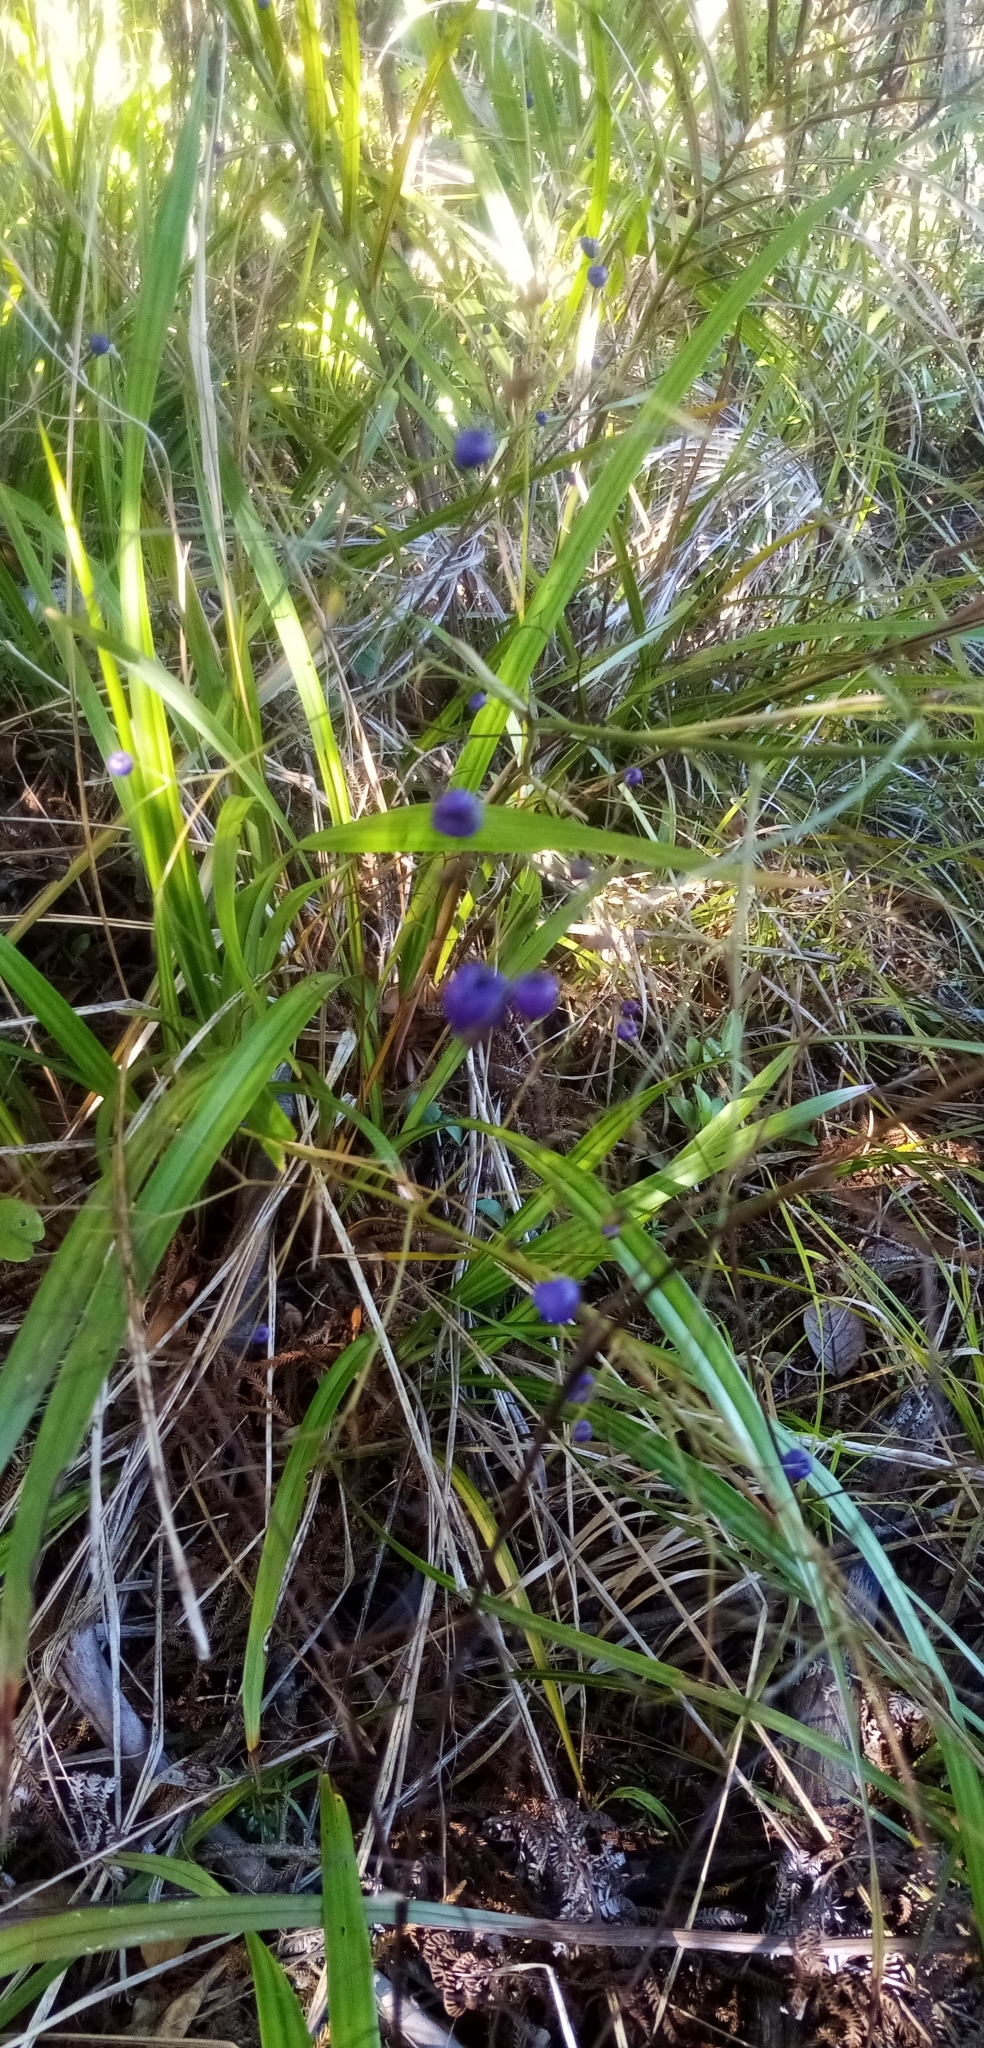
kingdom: Plantae
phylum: Tracheophyta
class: Liliopsida
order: Asparagales
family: Asphodelaceae
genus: Dianella
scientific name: Dianella nigra
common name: New zealand-blueberry
